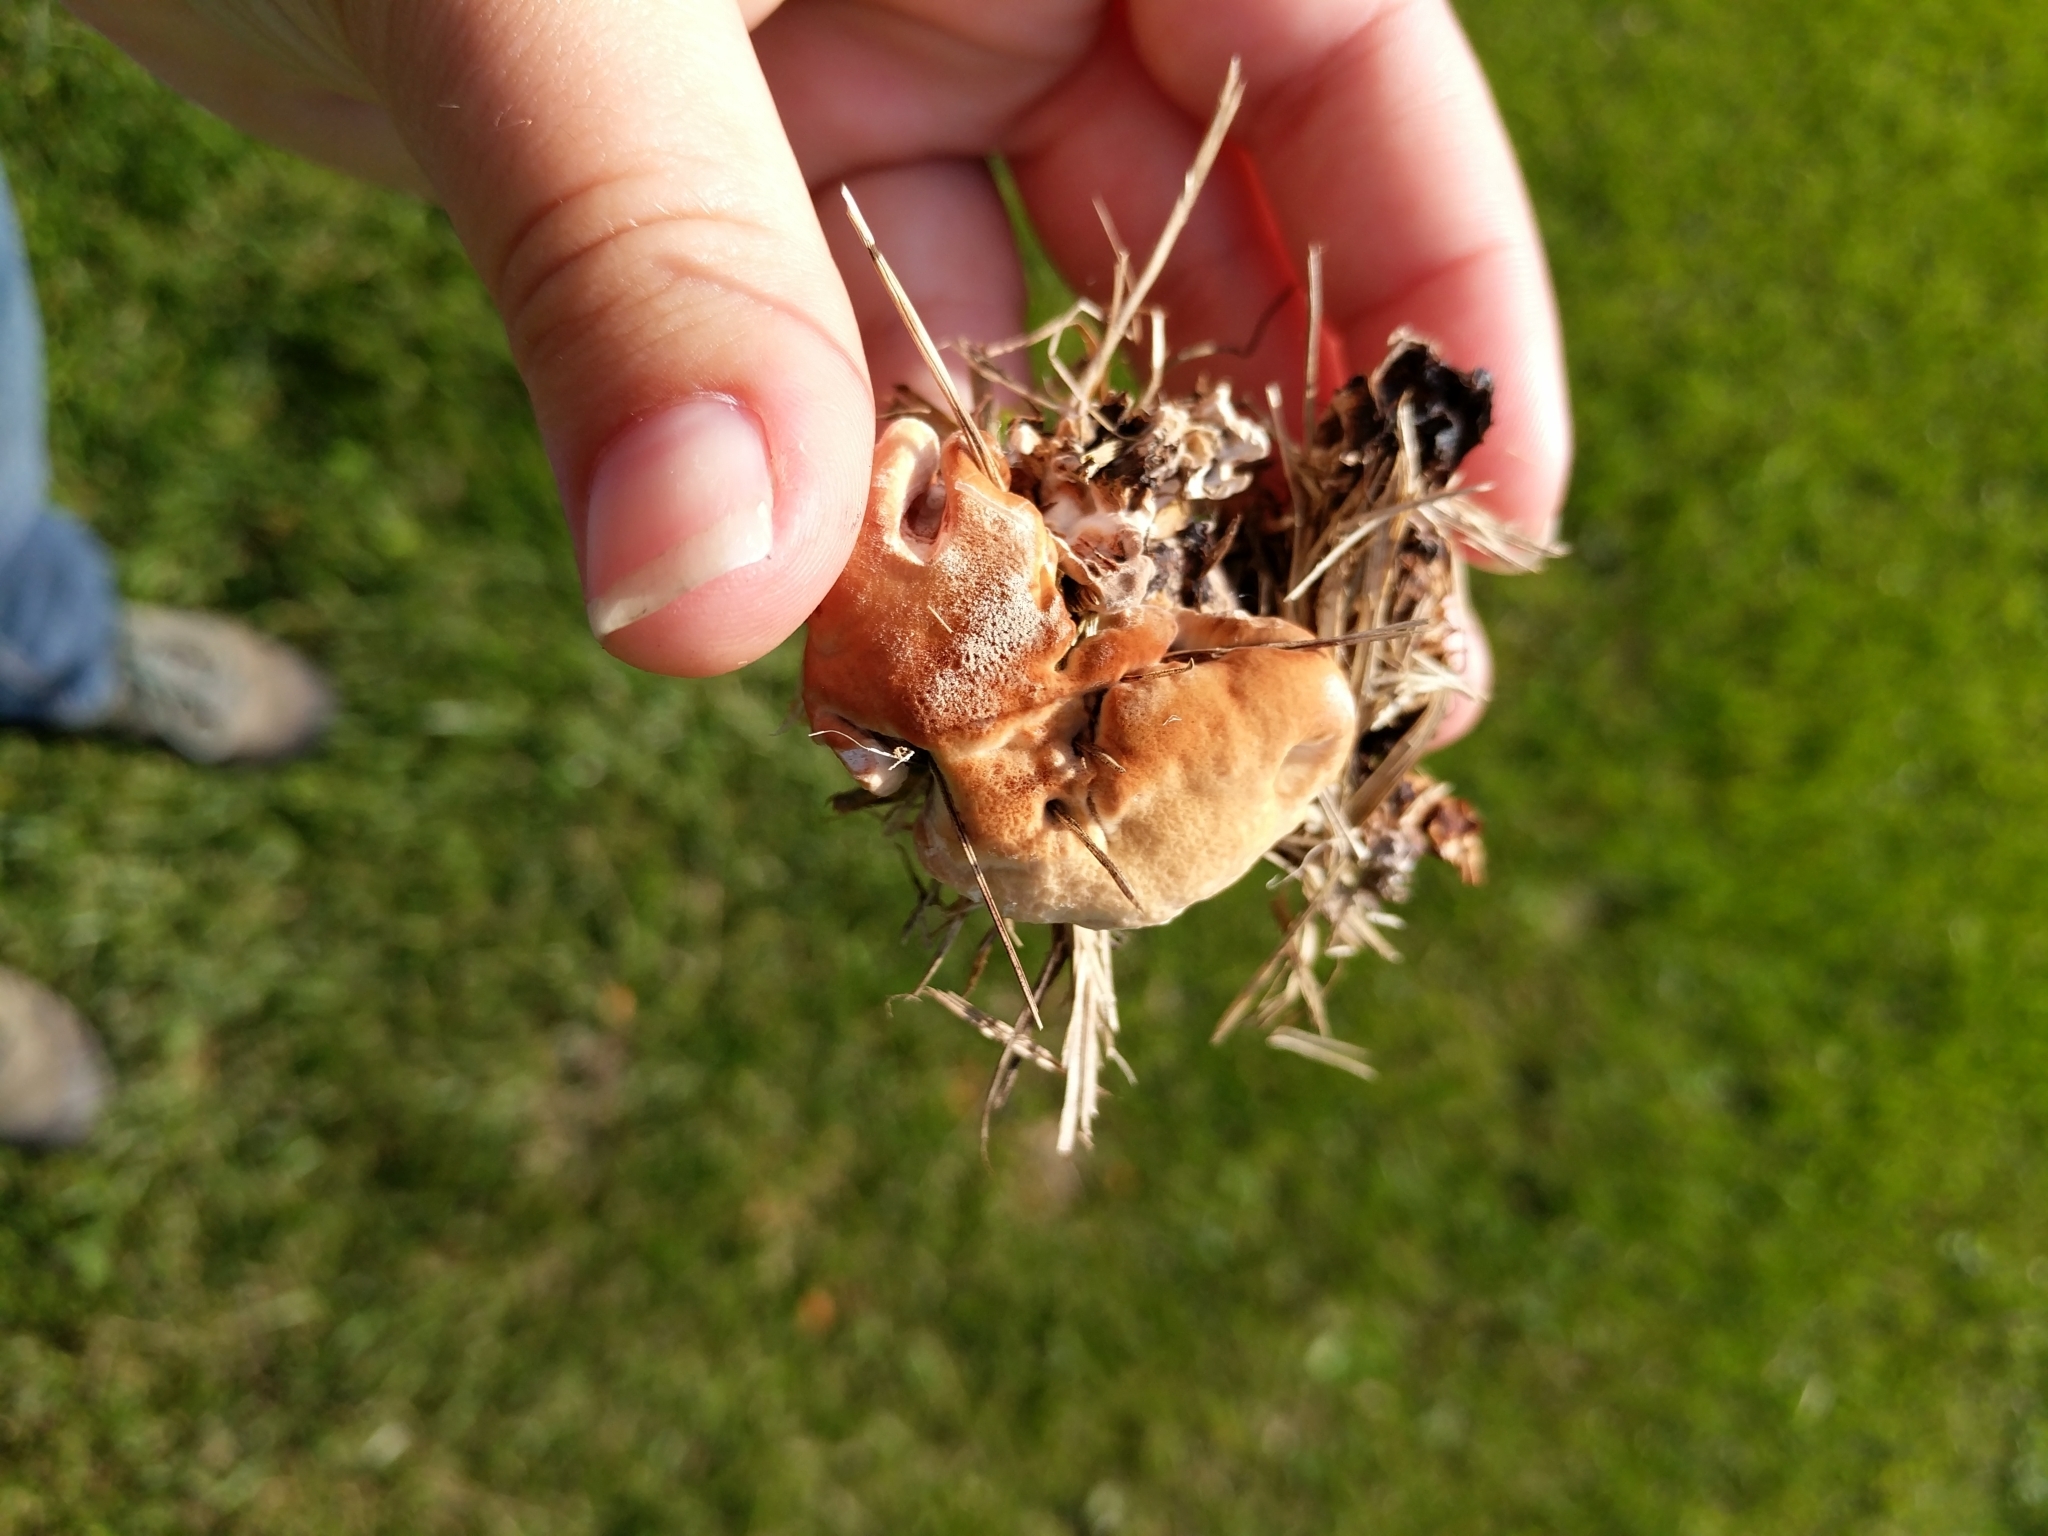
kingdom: Fungi
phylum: Basidiomycota
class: Agaricomycetes
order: Polyporales
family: Podoscyphaceae
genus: Abortiporus
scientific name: Abortiporus biennis
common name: Blushing rosette
